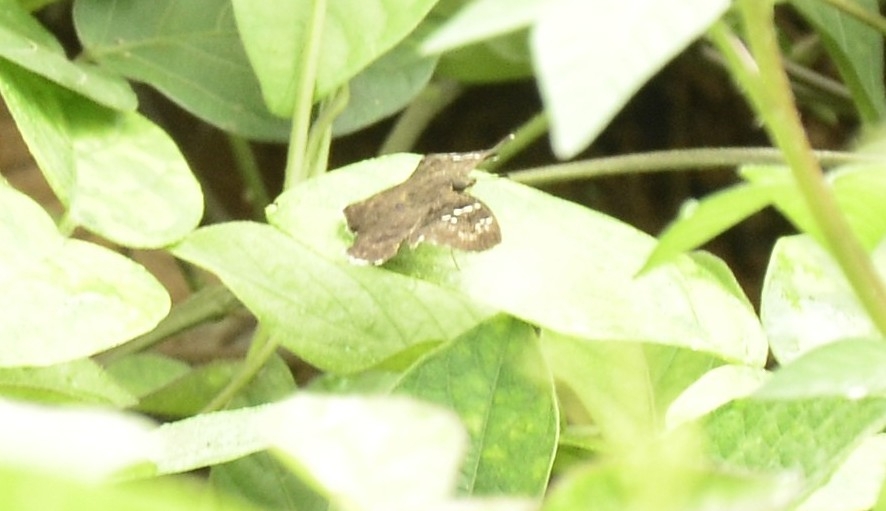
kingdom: Animalia
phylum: Arthropoda
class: Insecta
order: Lepidoptera
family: Hesperiidae
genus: Sarangesa
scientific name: Sarangesa dasahara
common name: Common small flat
